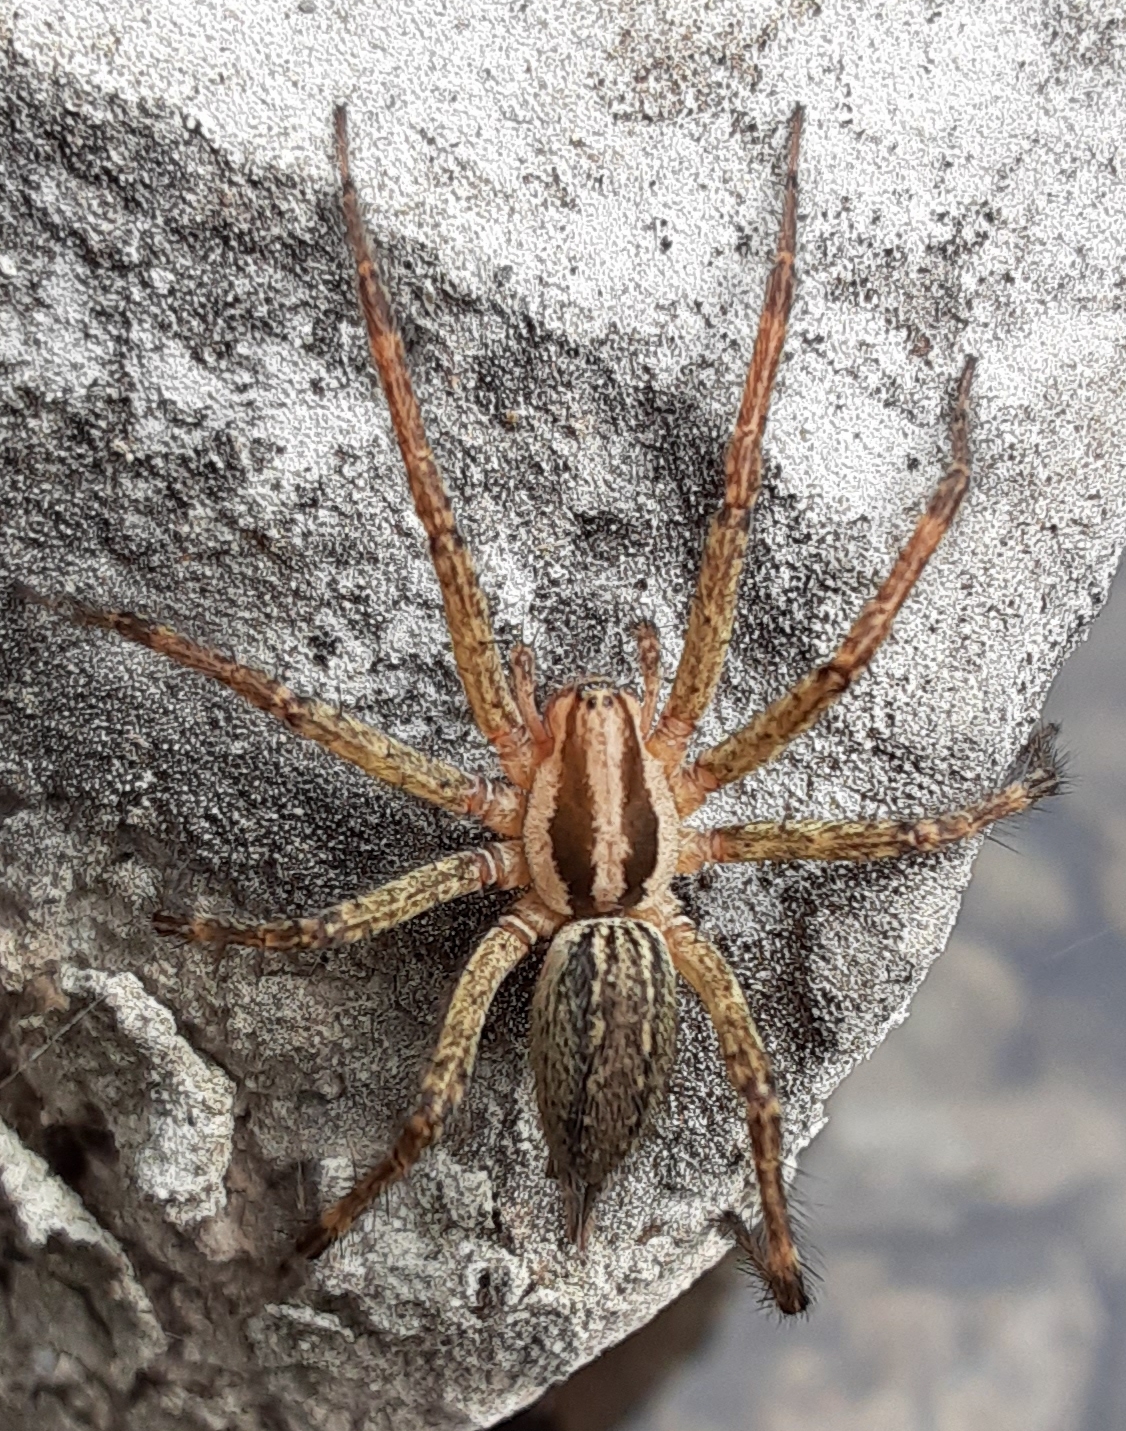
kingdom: Animalia
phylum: Arthropoda
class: Arachnida
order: Araneae
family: Agelenidae
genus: Agelenopsis
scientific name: Agelenopsis
